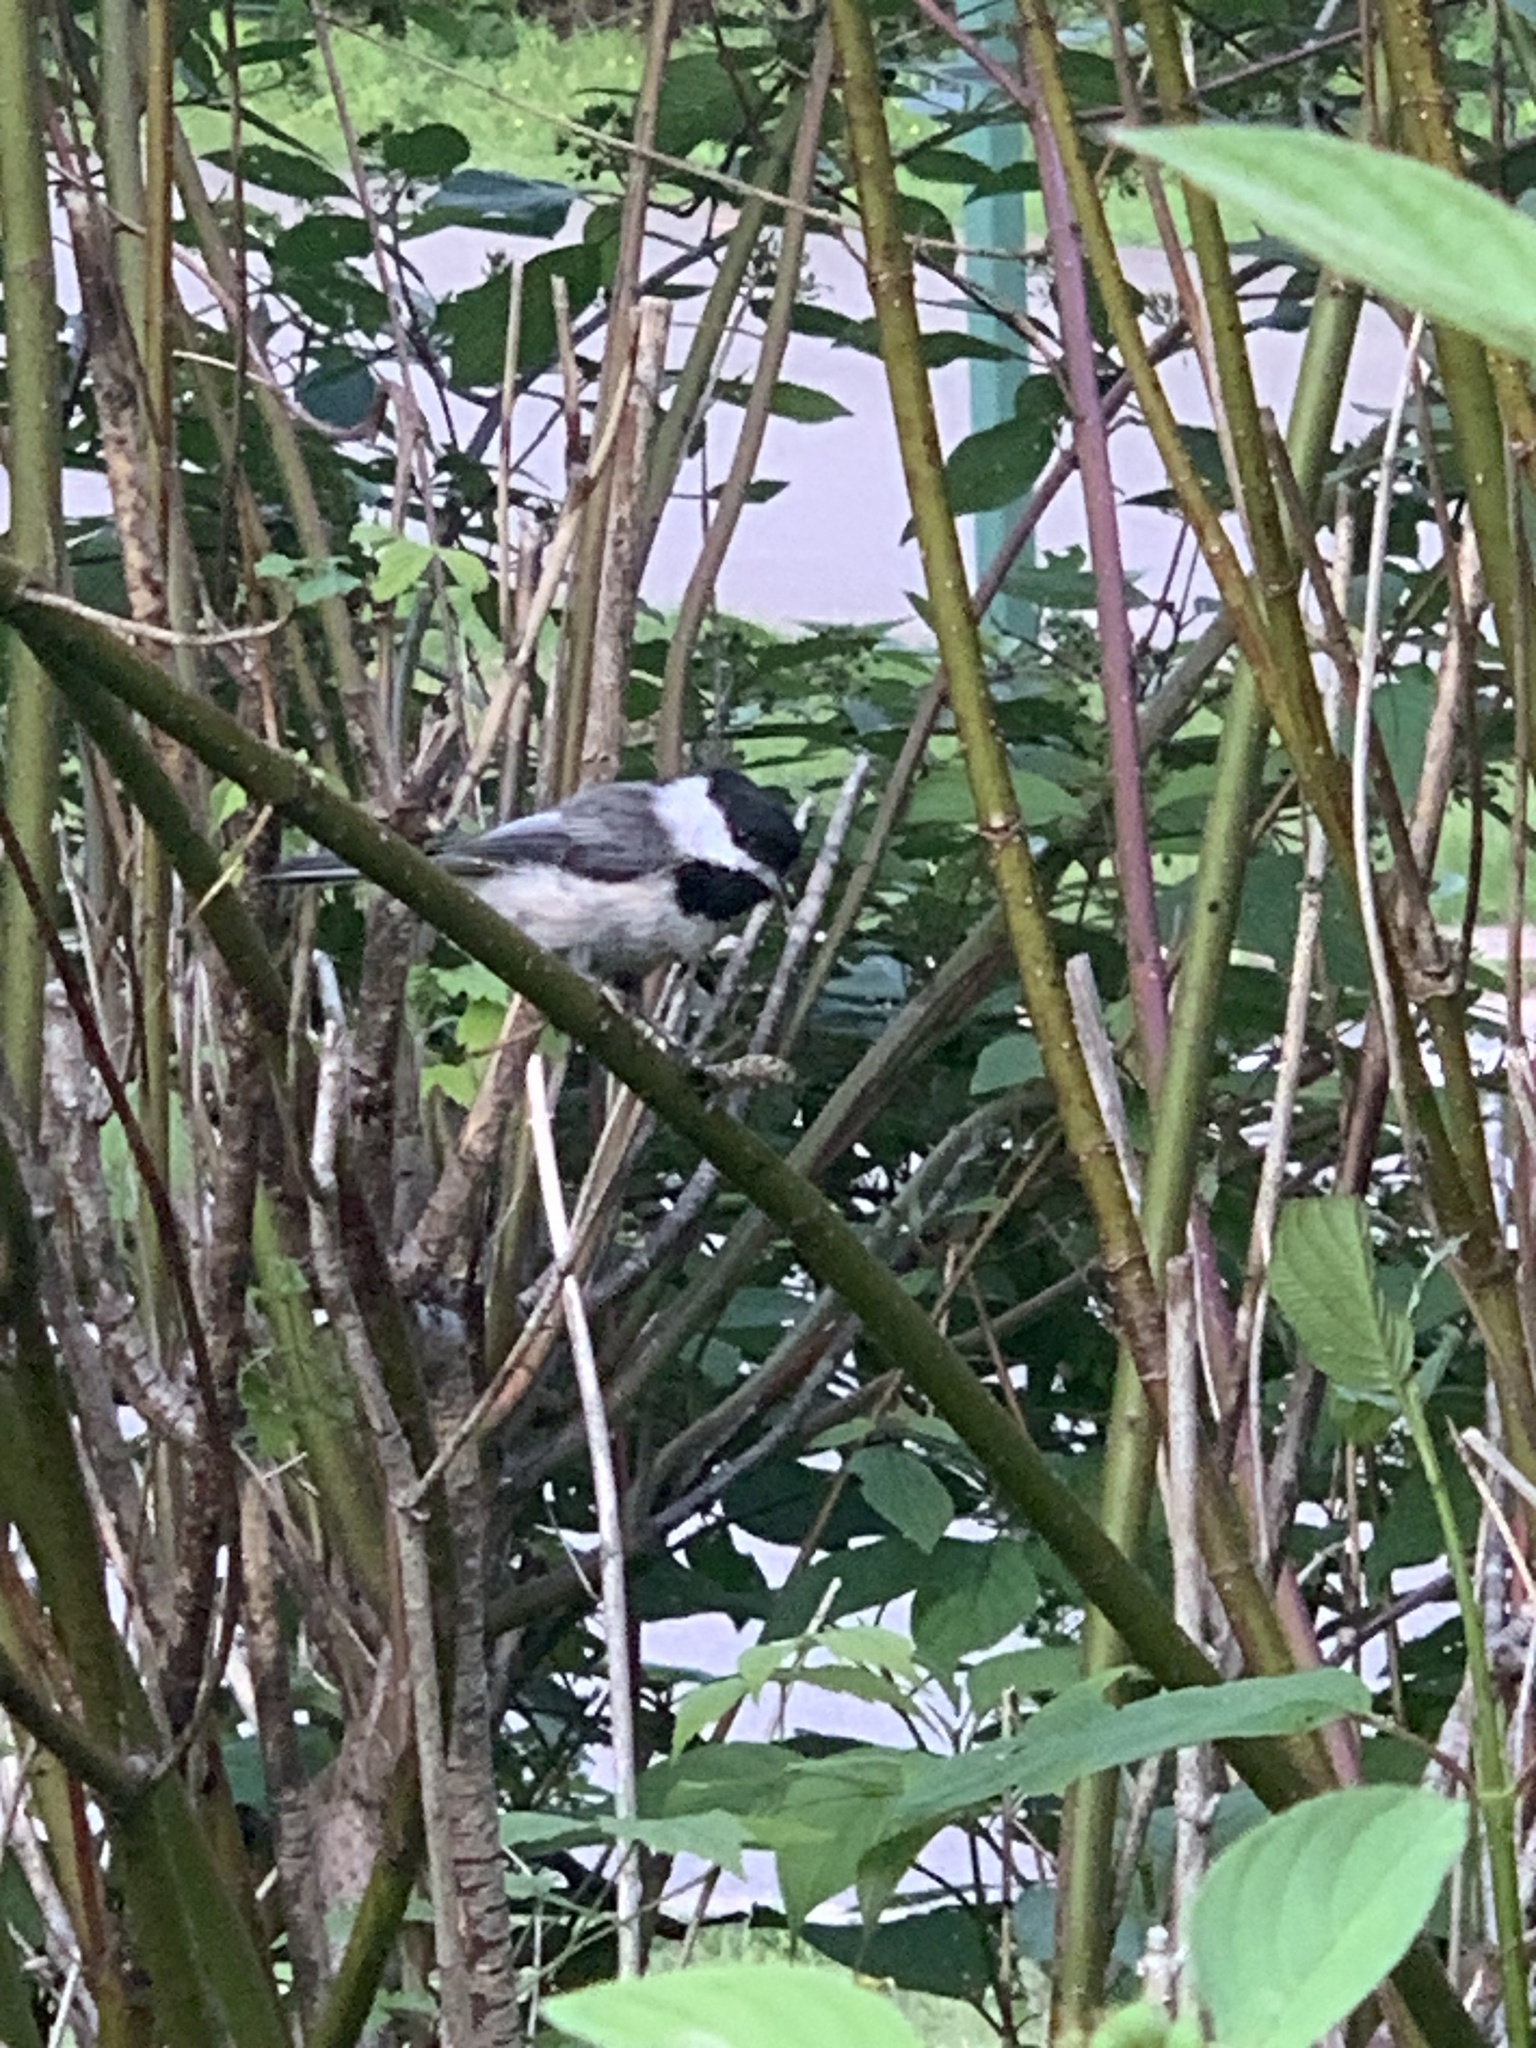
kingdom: Animalia
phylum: Chordata
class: Aves
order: Passeriformes
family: Paridae
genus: Poecile
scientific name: Poecile atricapillus
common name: Black-capped chickadee
